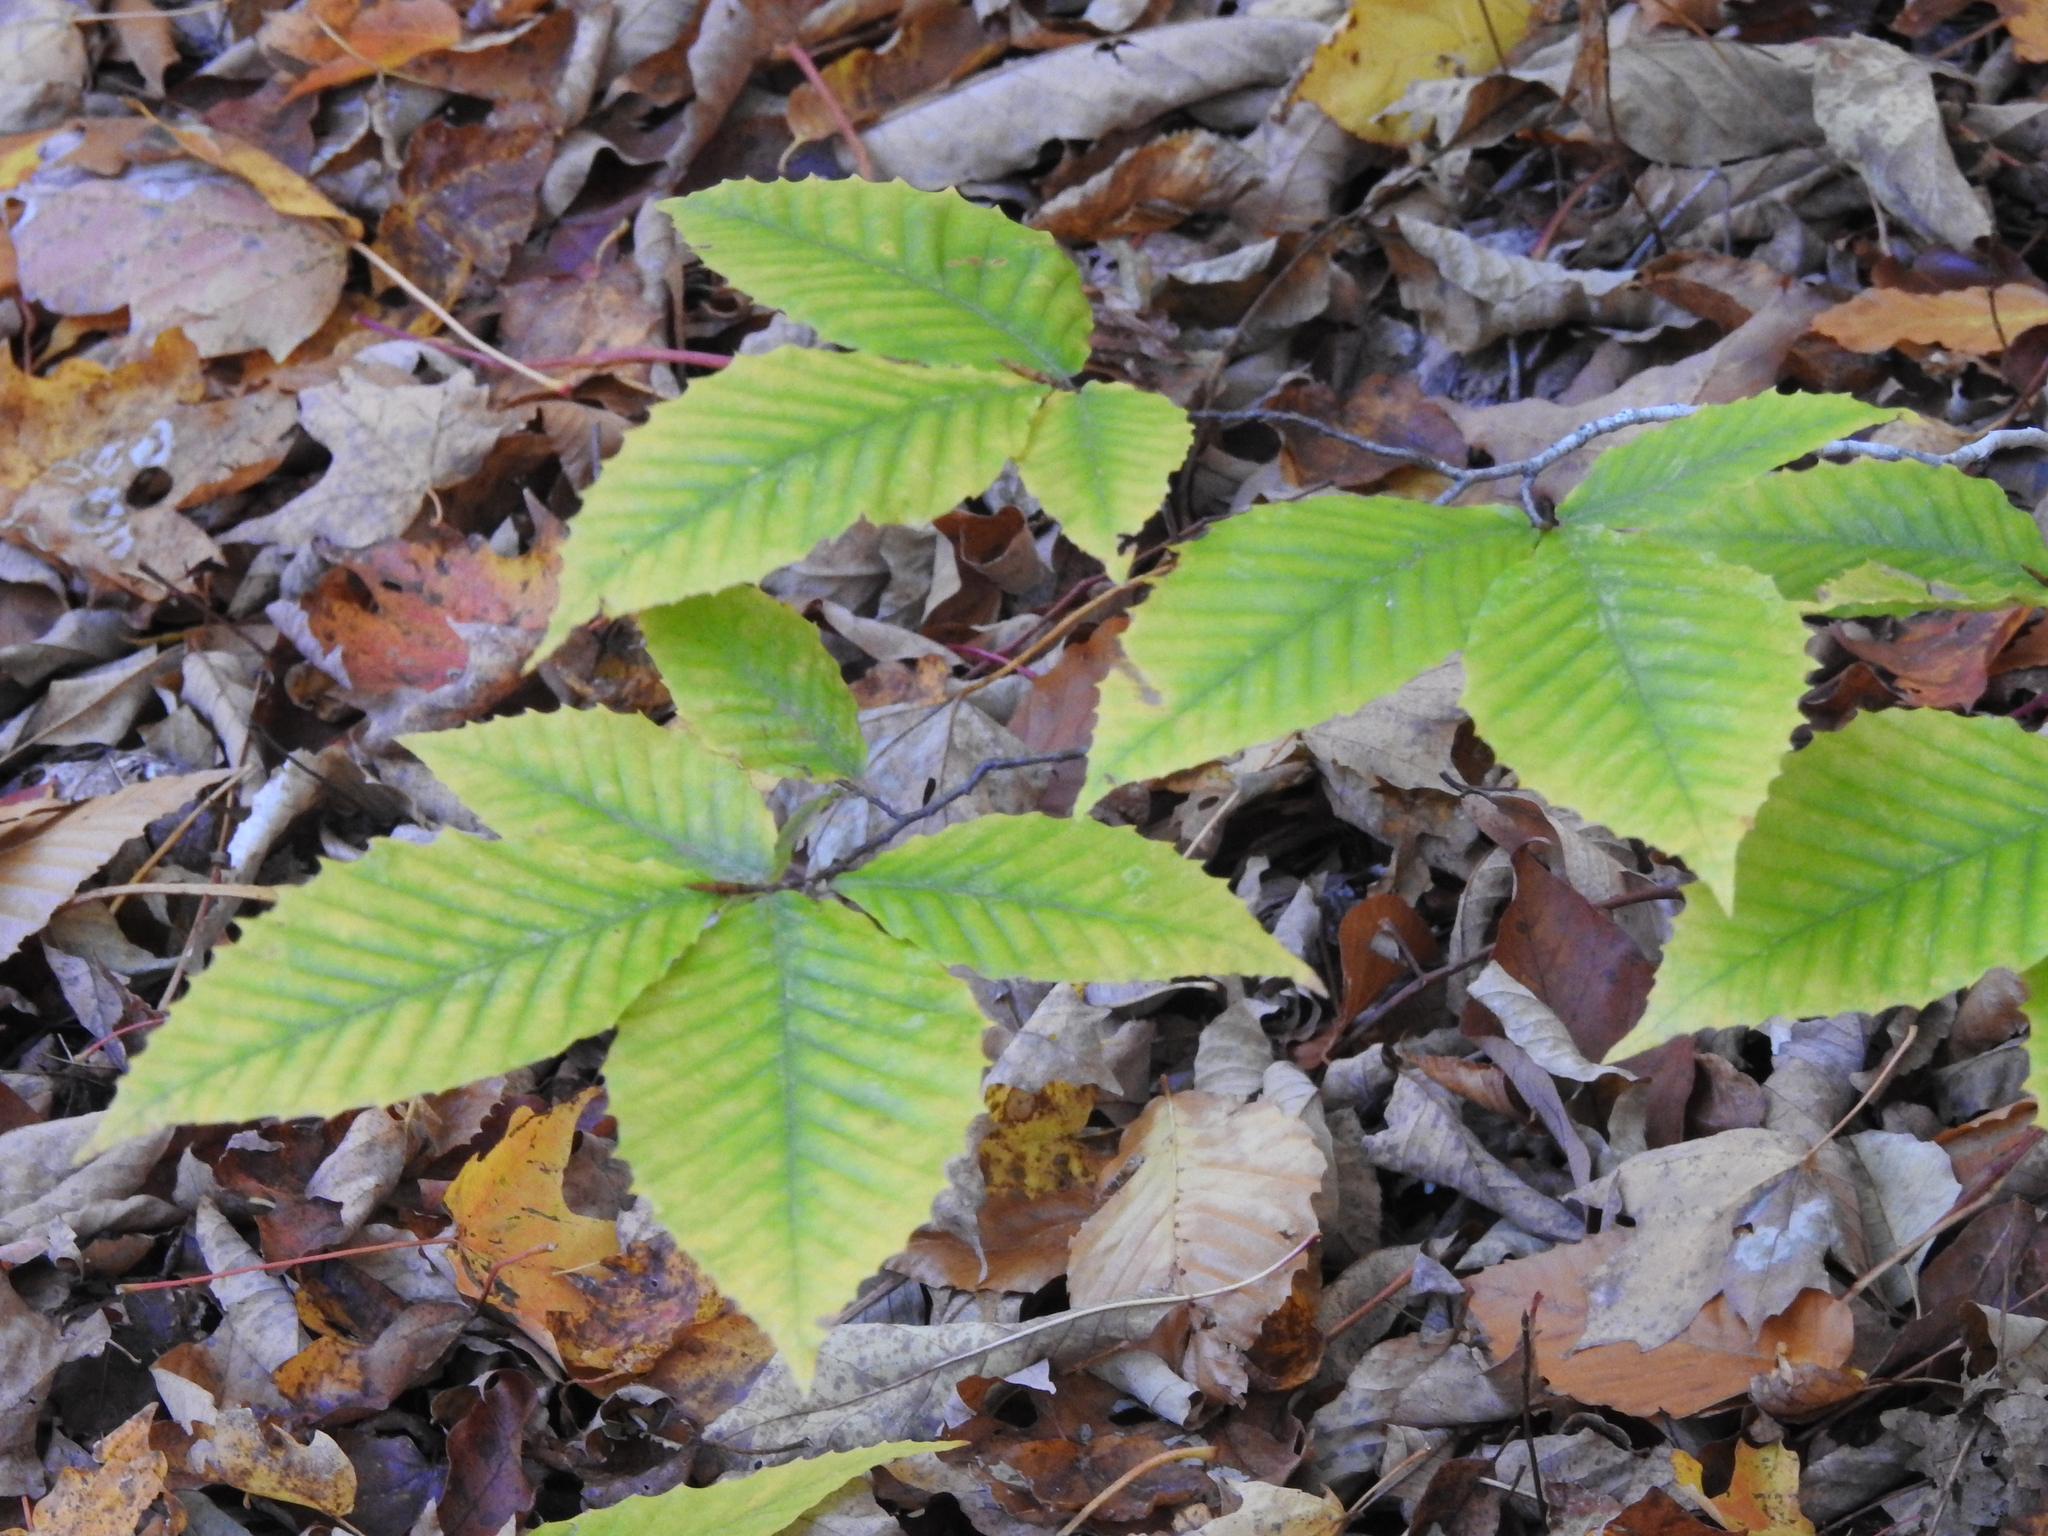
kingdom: Plantae
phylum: Tracheophyta
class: Magnoliopsida
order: Fagales
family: Fagaceae
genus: Fagus
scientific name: Fagus grandifolia
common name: American beech
